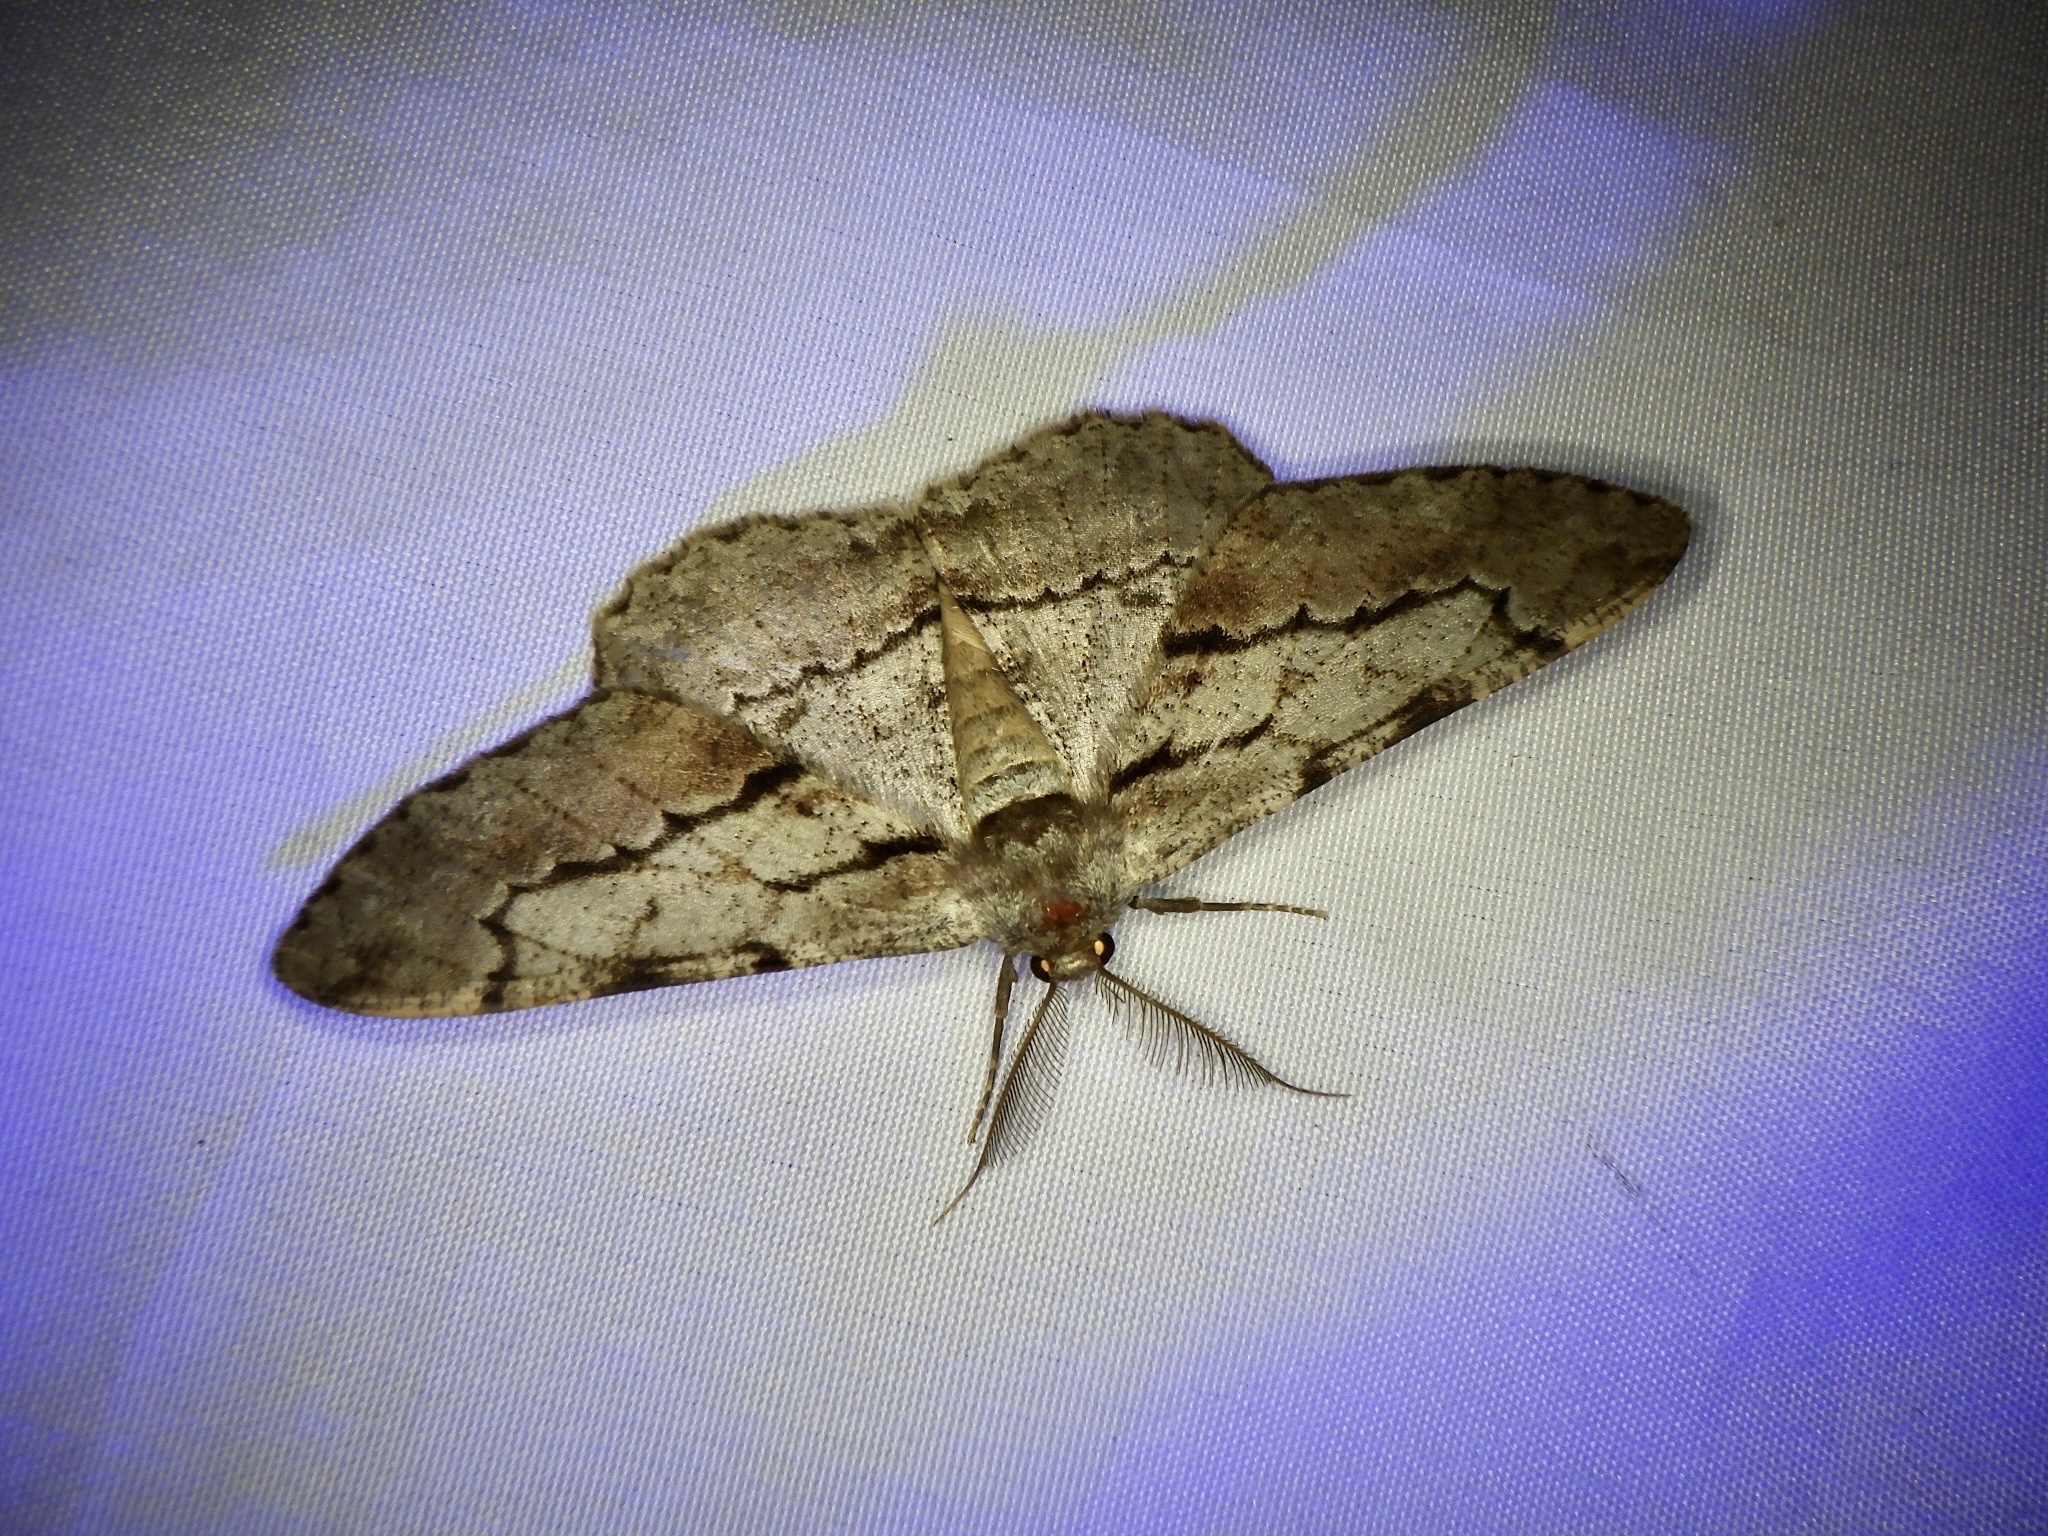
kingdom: Animalia
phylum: Arthropoda
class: Insecta
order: Lepidoptera
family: Geometridae
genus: Phthonosema
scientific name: Phthonosema tendinosaria
